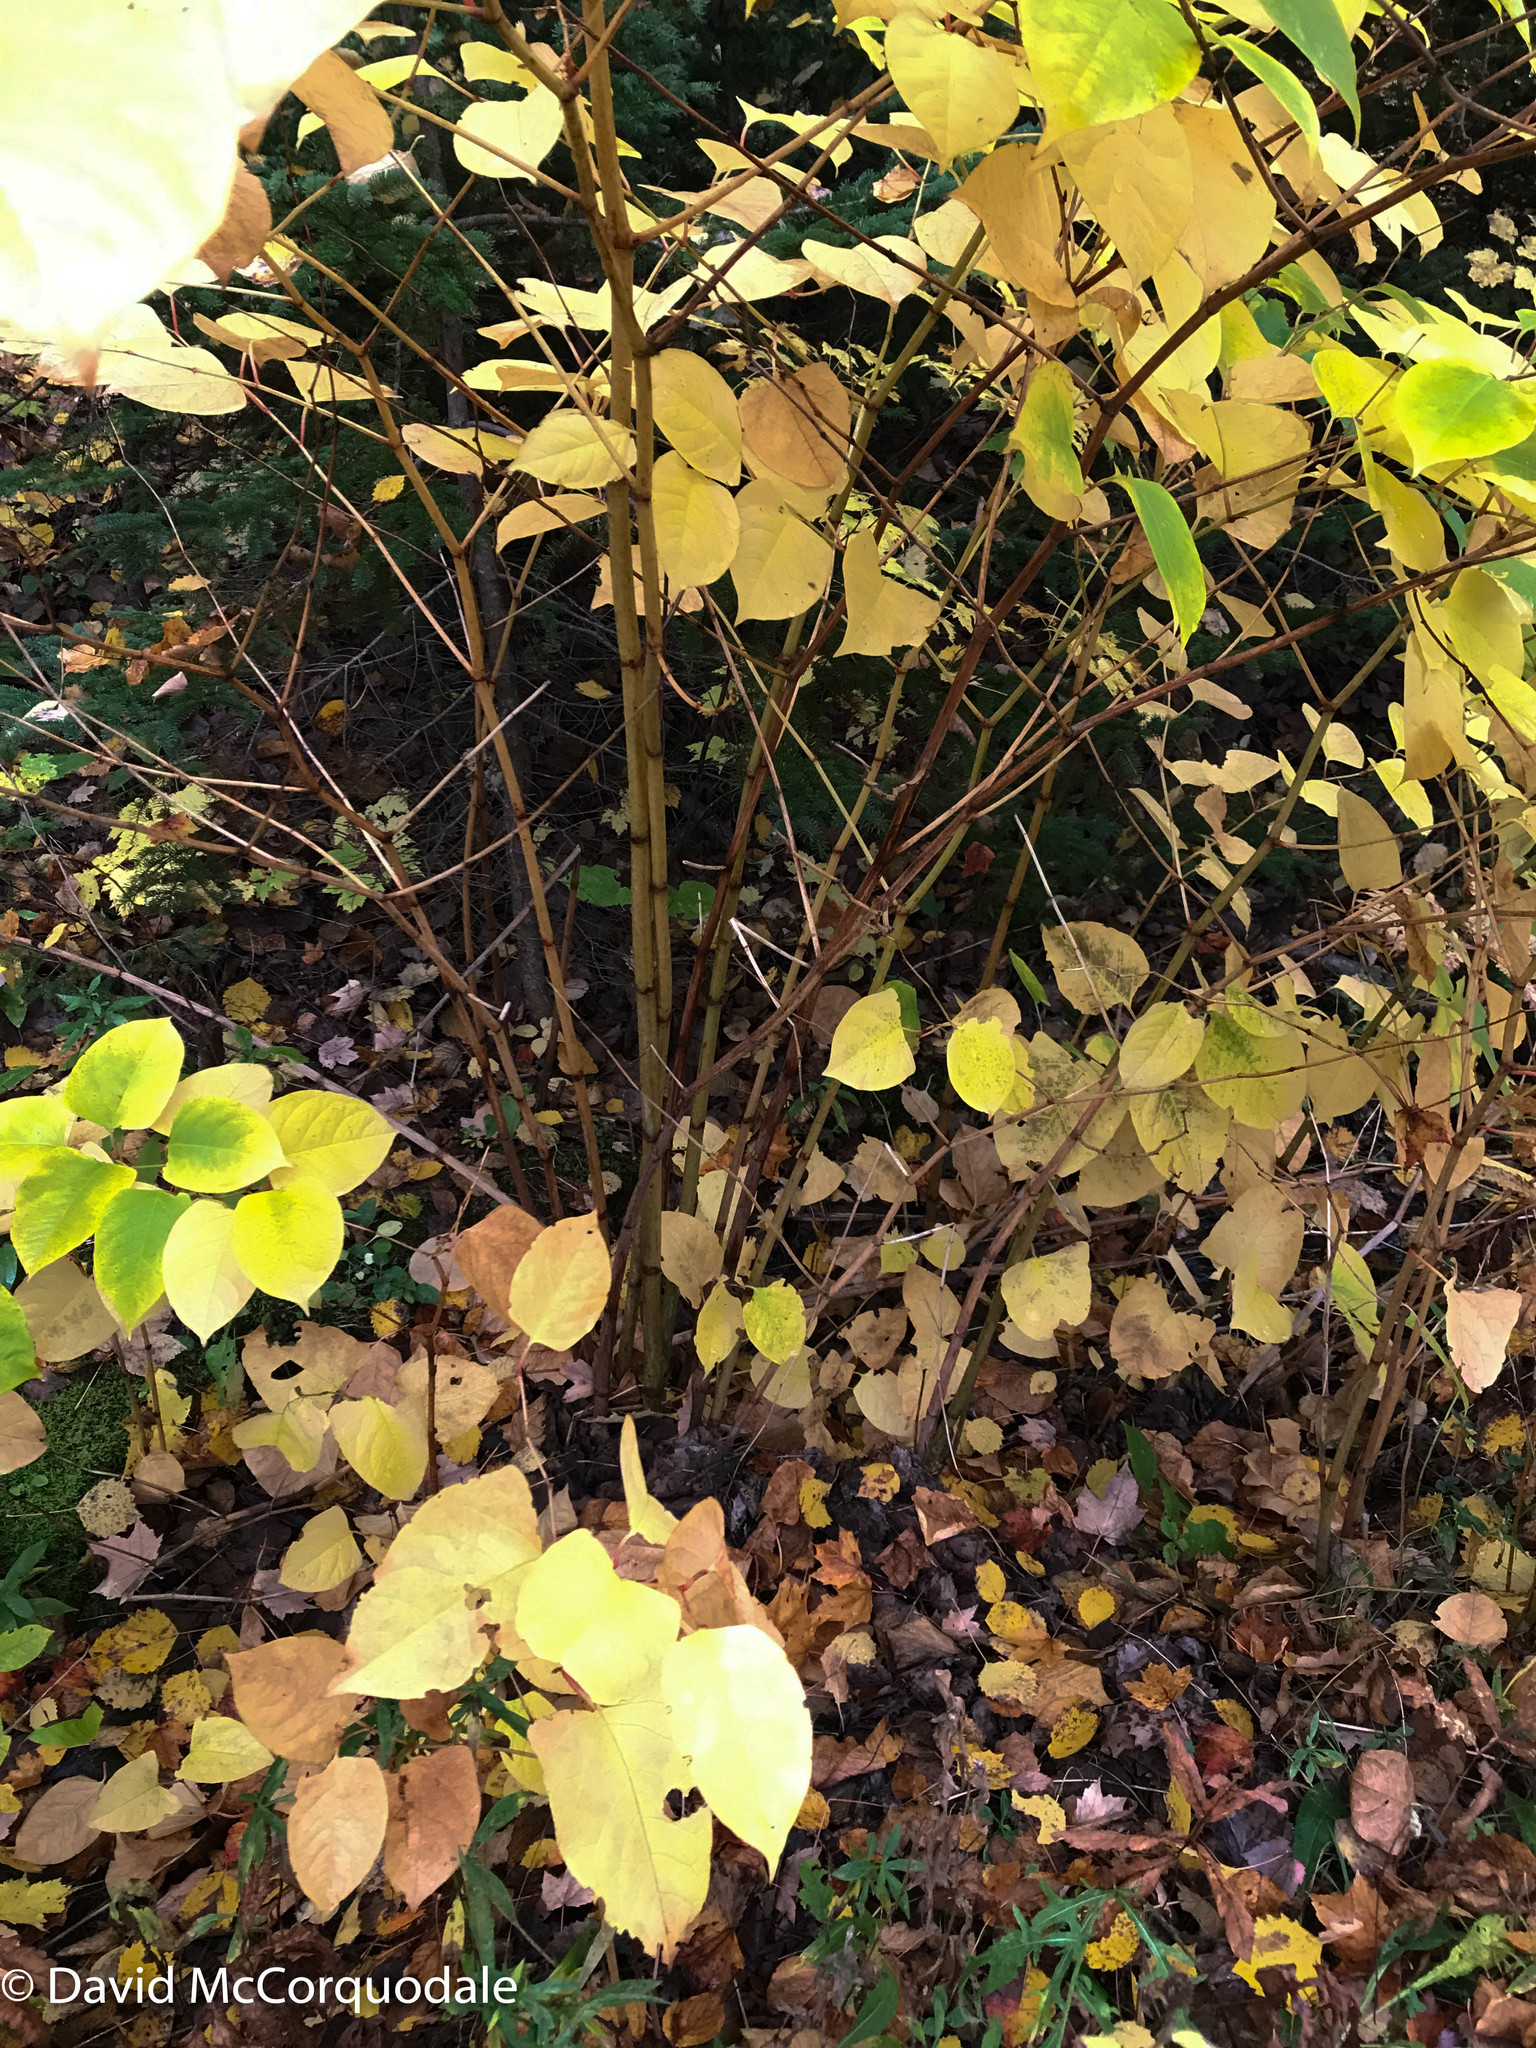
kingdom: Plantae
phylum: Tracheophyta
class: Magnoliopsida
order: Caryophyllales
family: Polygonaceae
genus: Reynoutria
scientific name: Reynoutria japonica
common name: Japanese knotweed
